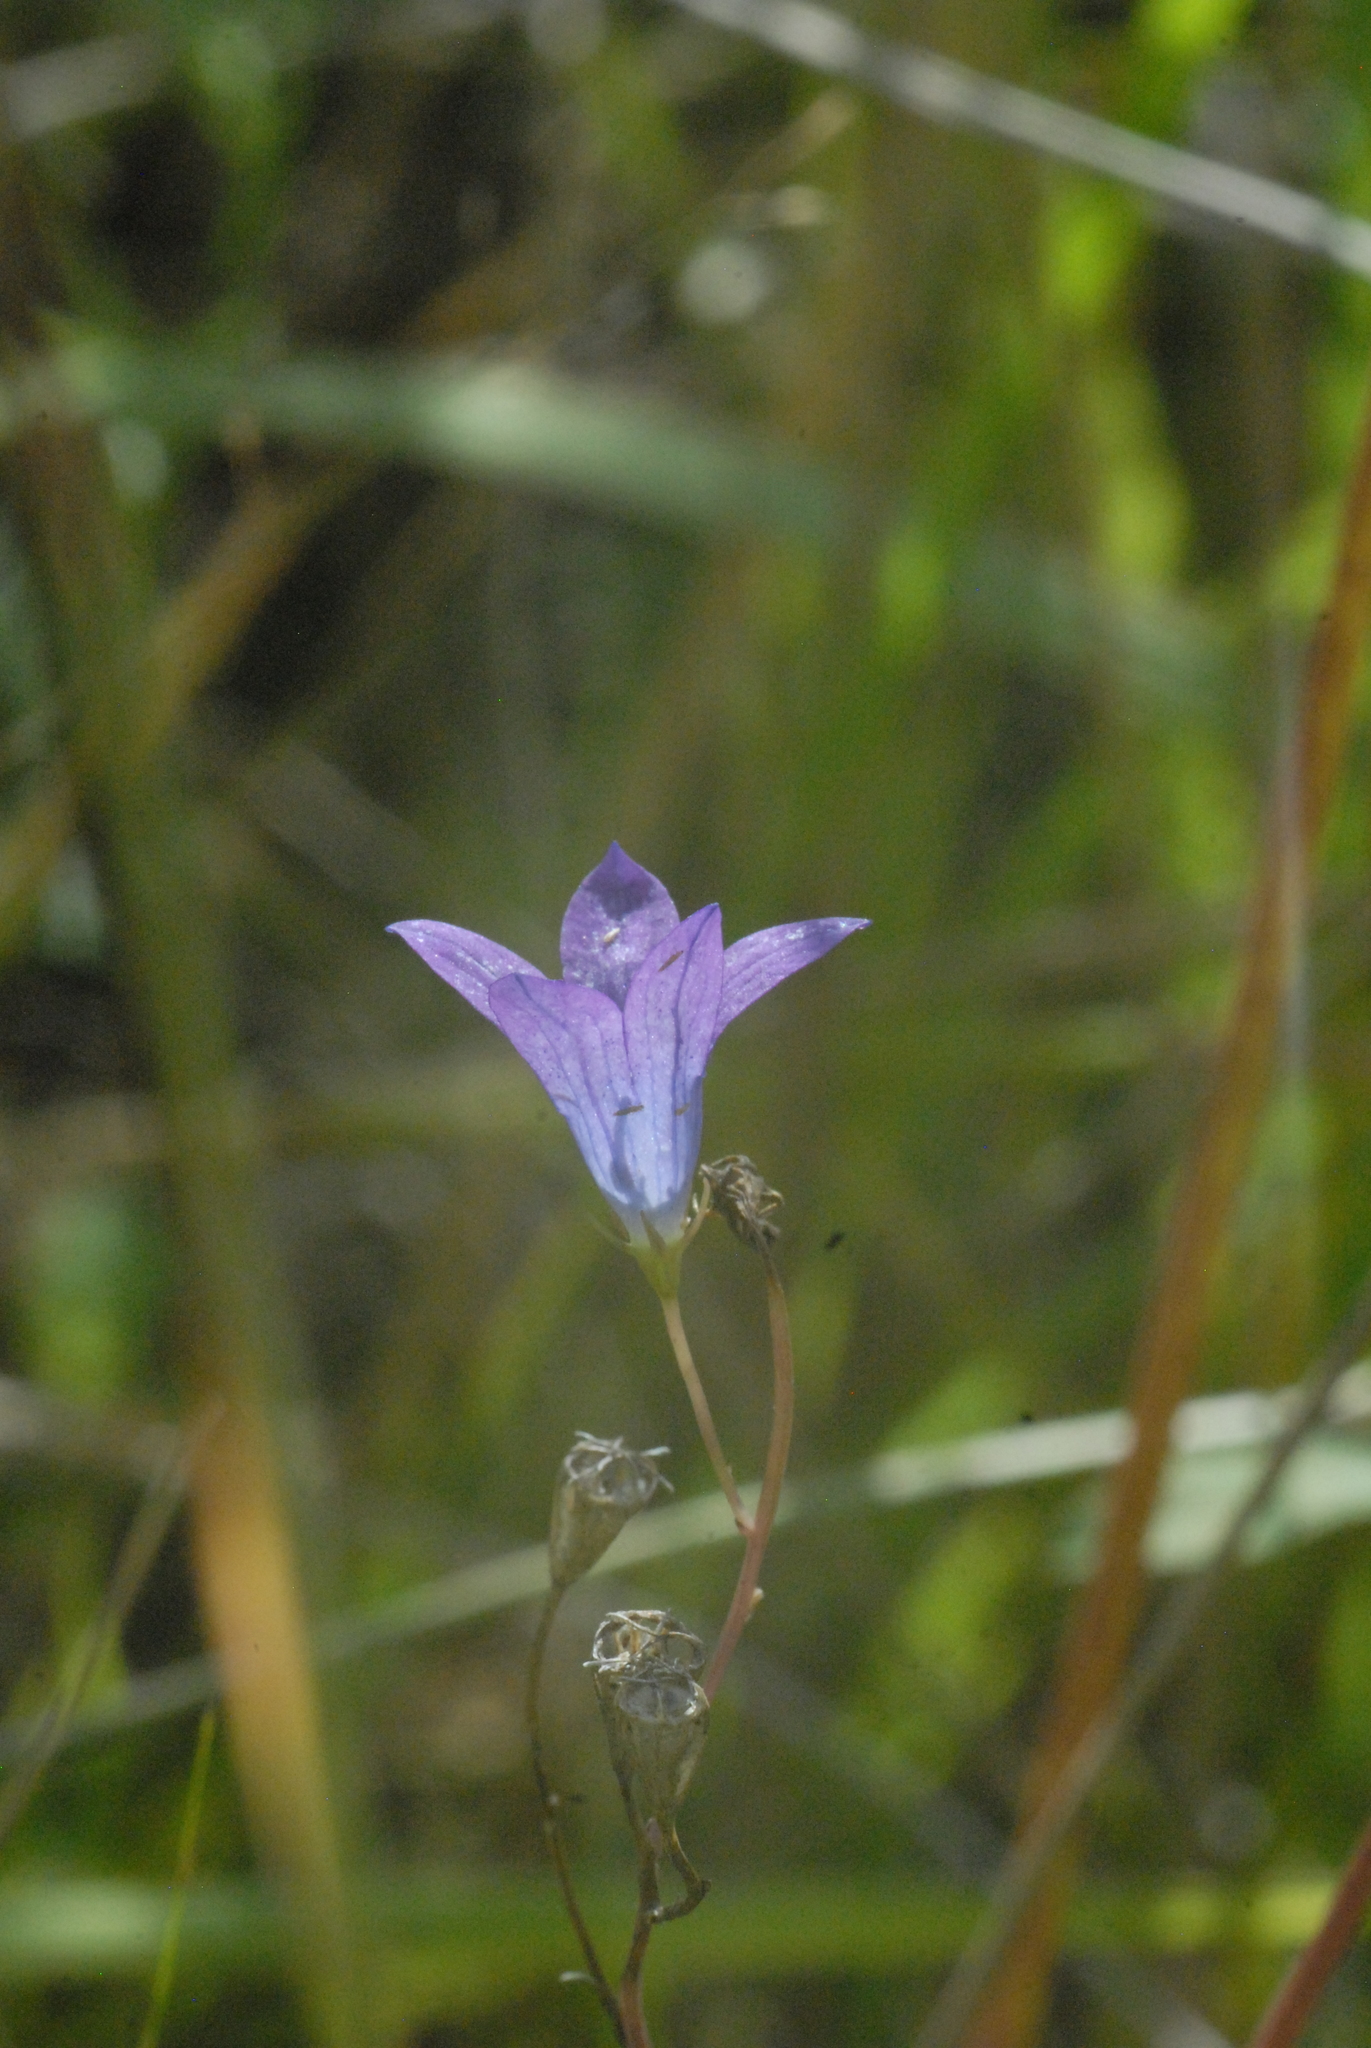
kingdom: Plantae
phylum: Tracheophyta
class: Magnoliopsida
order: Asterales
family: Campanulaceae
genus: Campanula
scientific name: Campanula patula
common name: Spreading bellflower
